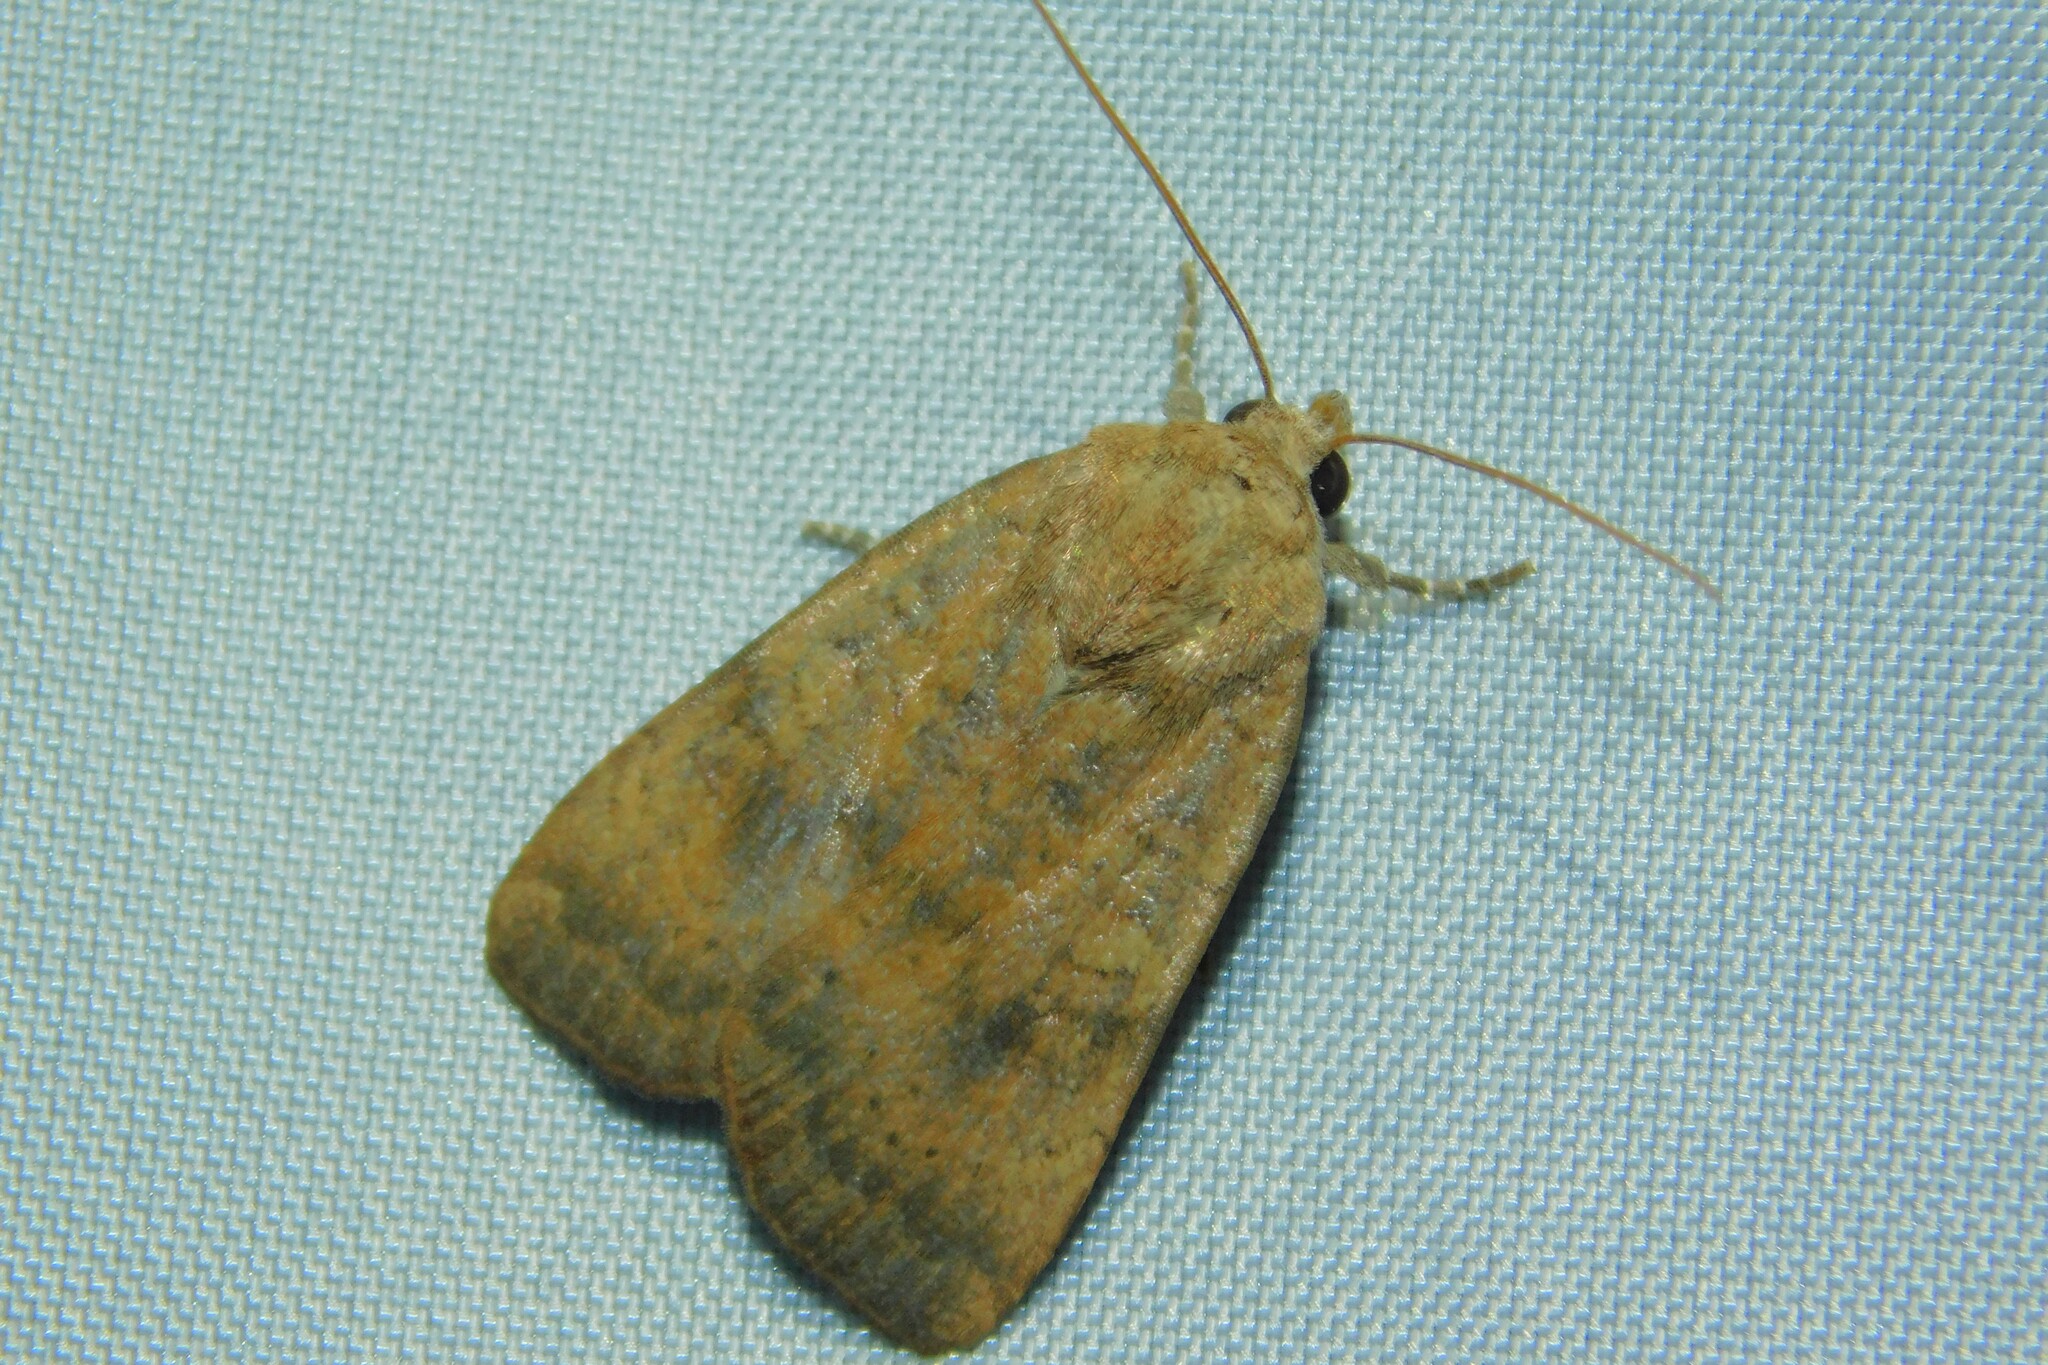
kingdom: Animalia
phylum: Arthropoda
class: Insecta
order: Lepidoptera
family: Noctuidae
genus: Noctua
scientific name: Noctua interjecta
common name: Least yellow underwing
